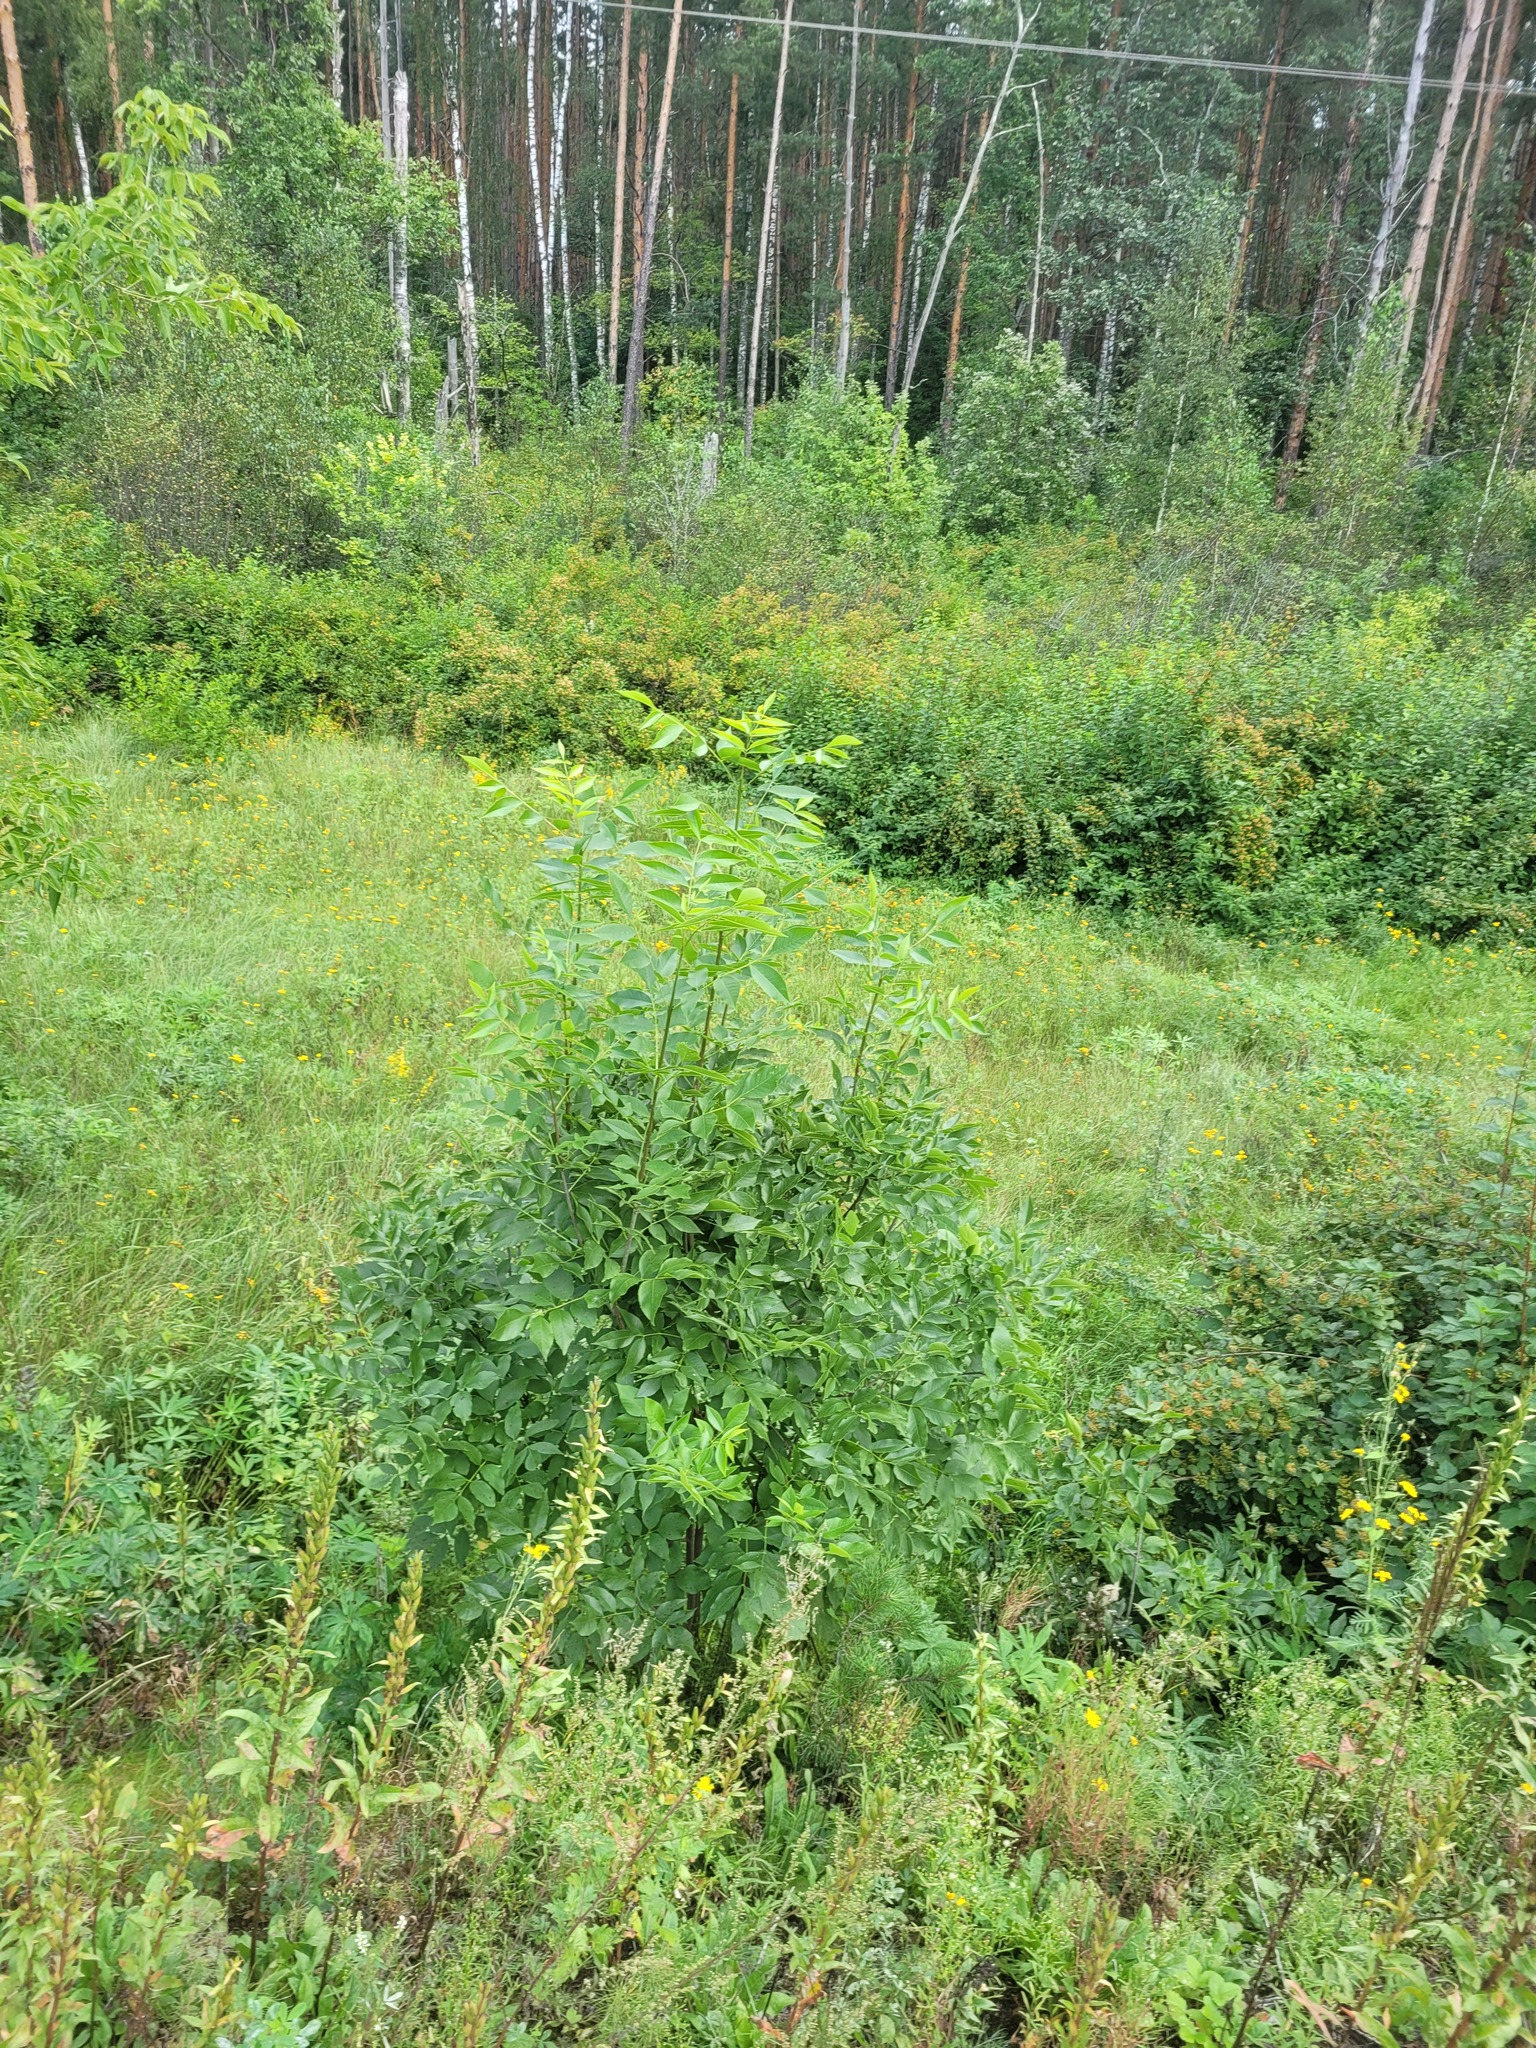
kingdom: Plantae
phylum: Tracheophyta
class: Magnoliopsida
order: Lamiales
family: Oleaceae
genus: Fraxinus
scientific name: Fraxinus pennsylvanica
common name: Green ash
